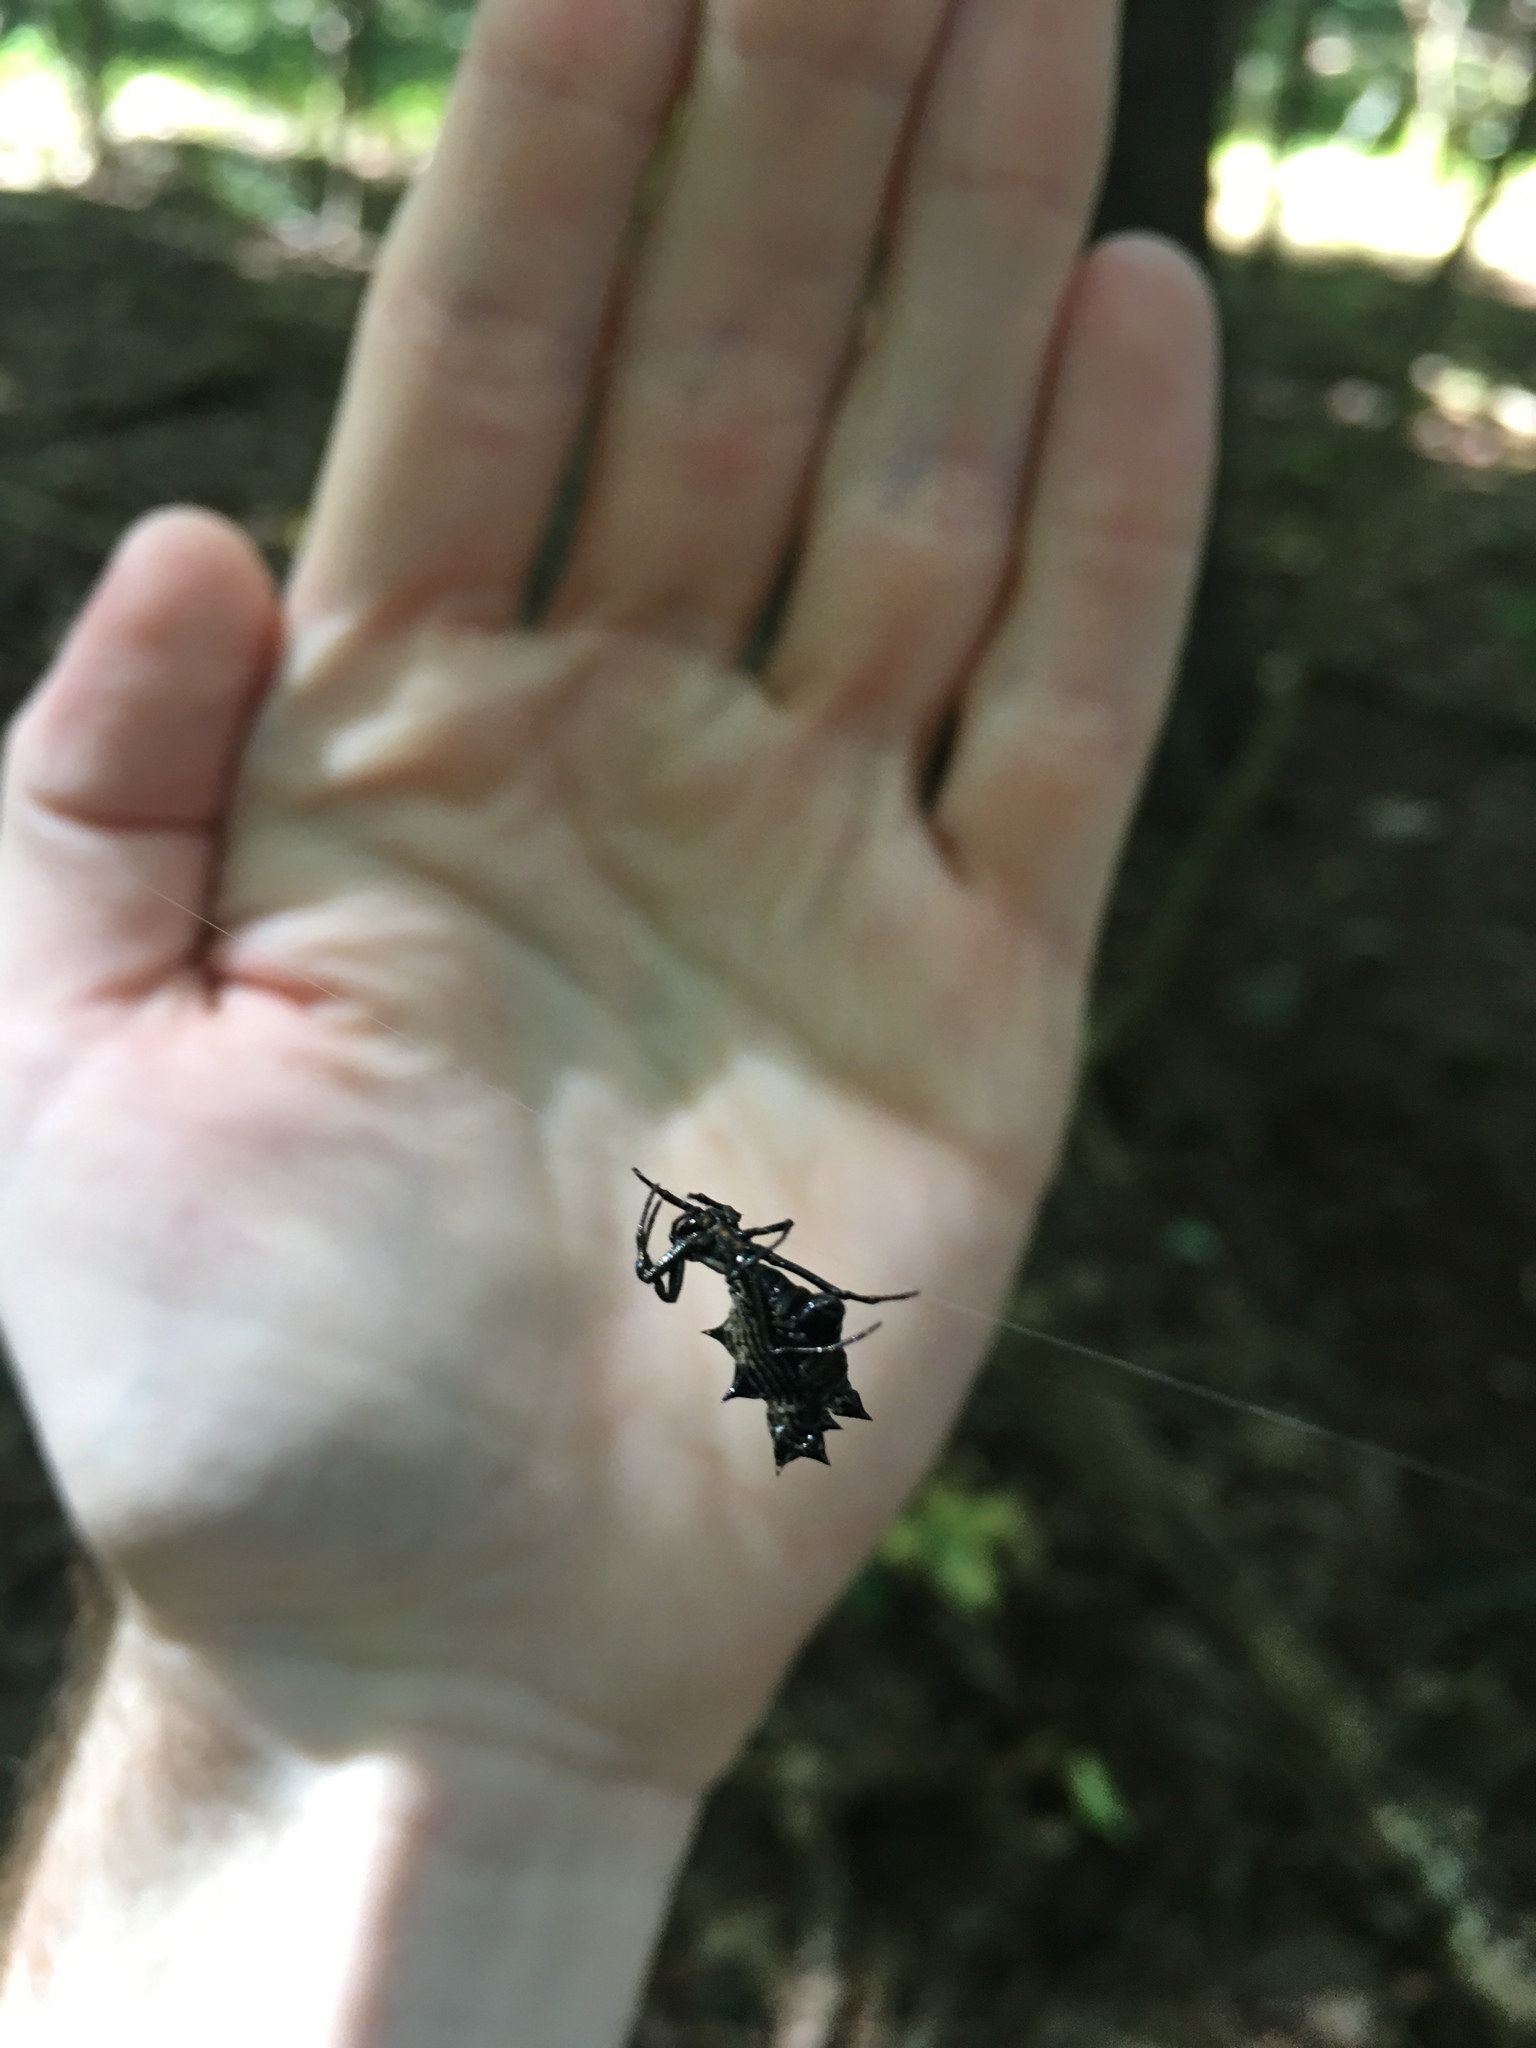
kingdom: Animalia
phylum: Arthropoda
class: Arachnida
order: Araneae
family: Araneidae
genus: Micrathena
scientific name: Micrathena gracilis
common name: Orb weavers
